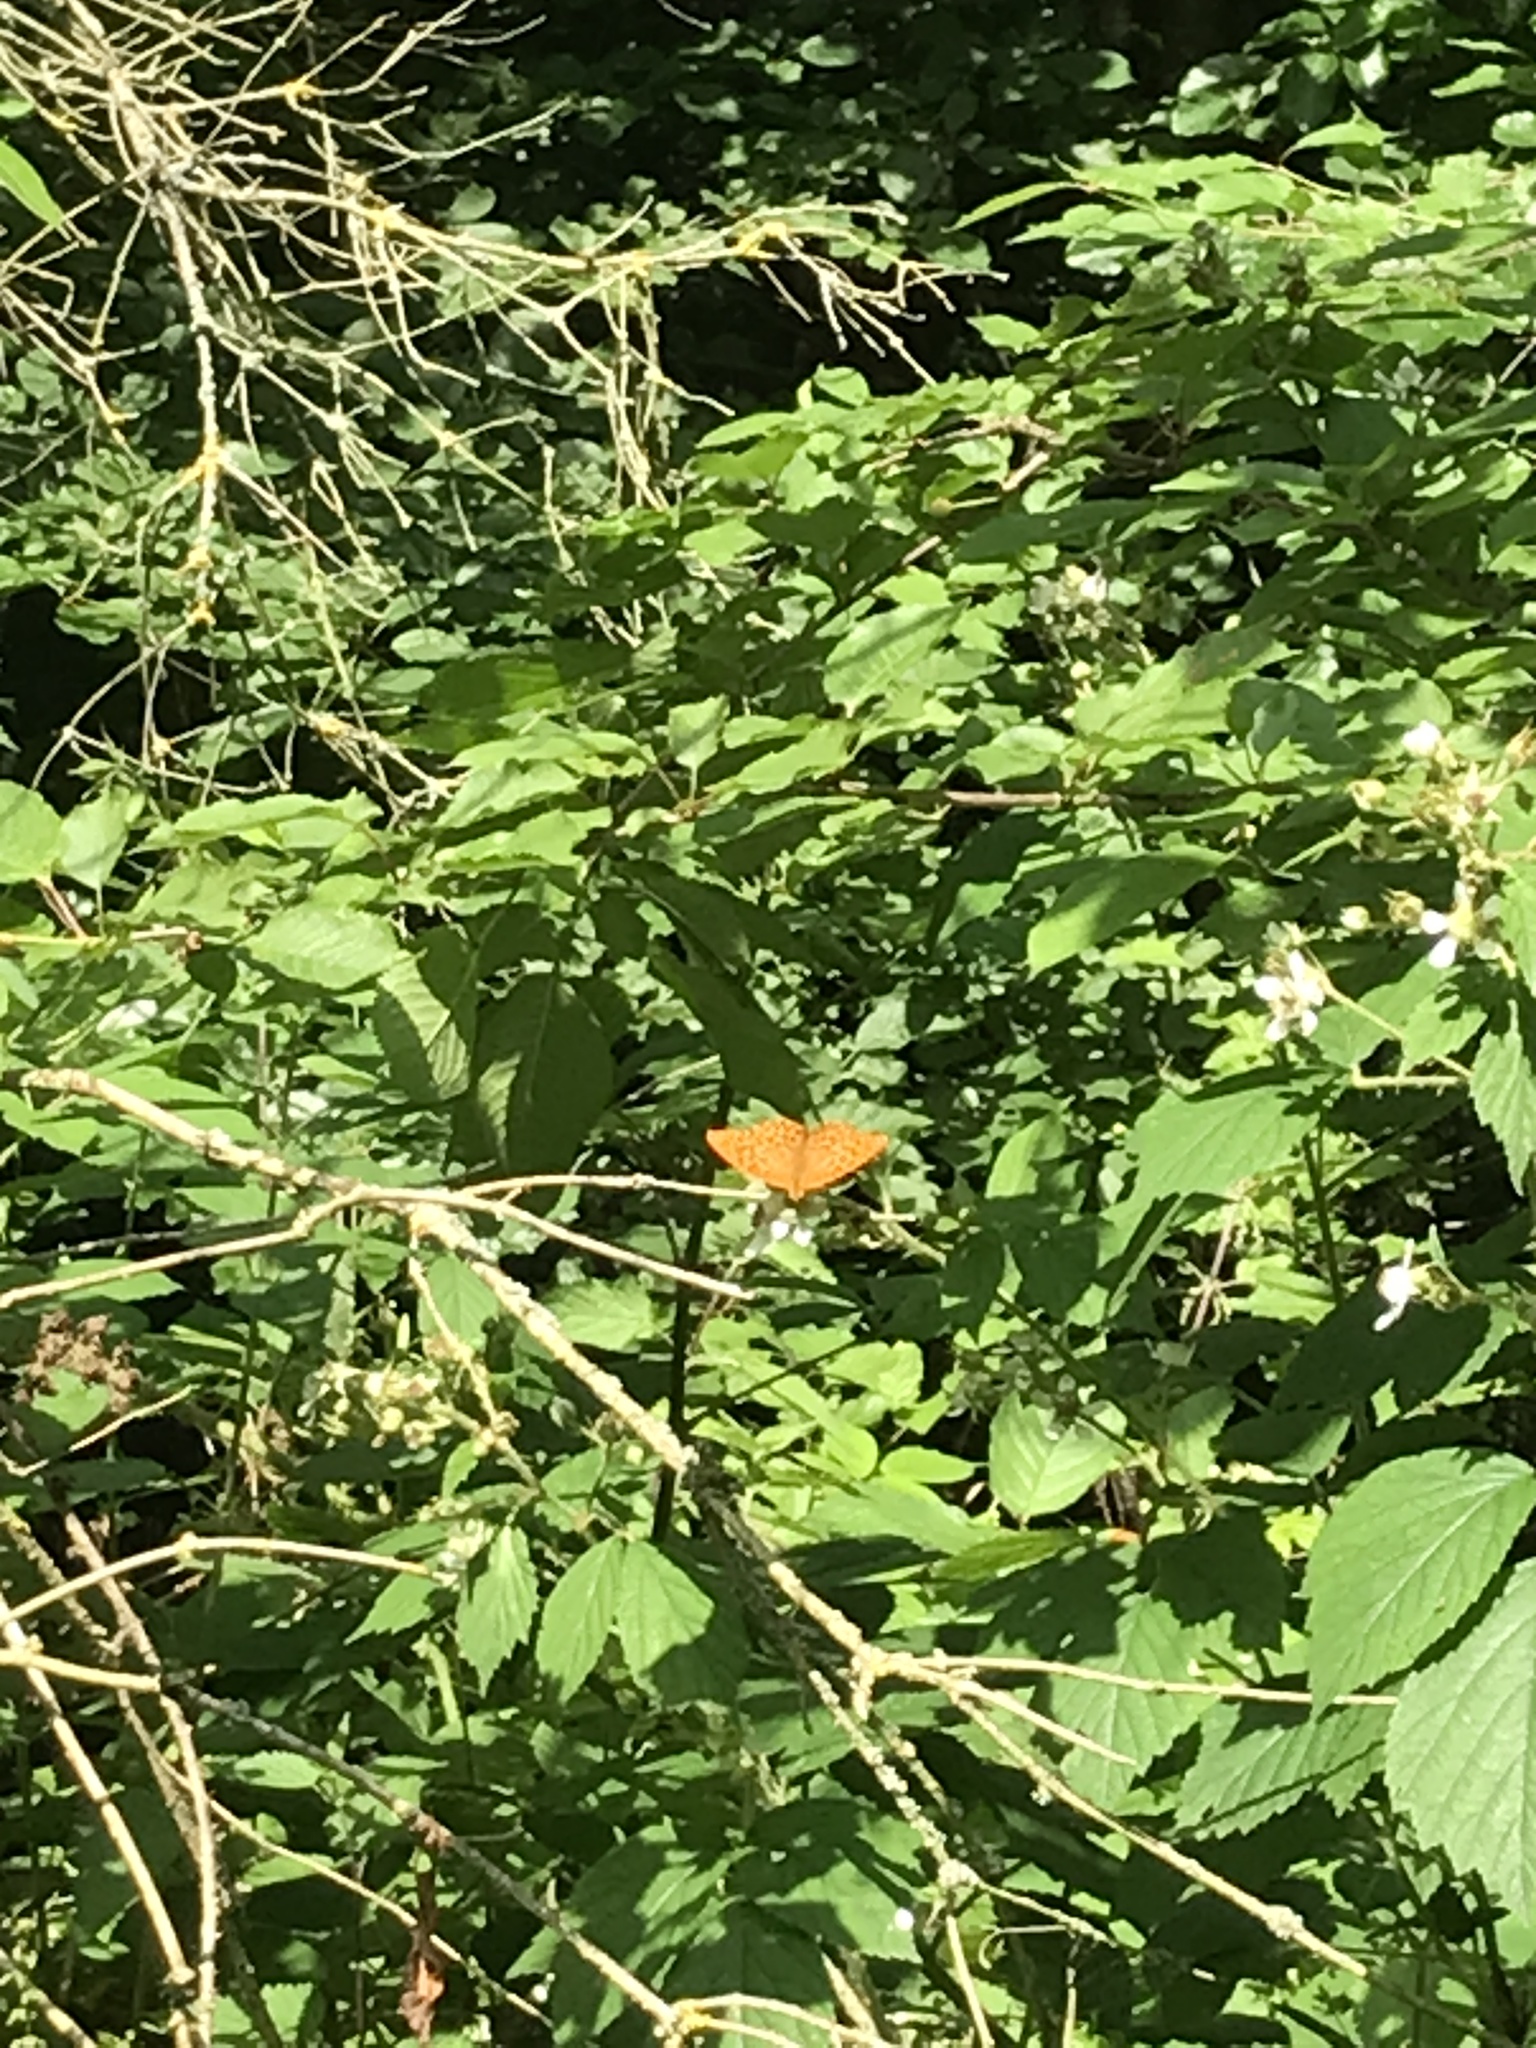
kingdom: Animalia
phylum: Arthropoda
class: Insecta
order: Lepidoptera
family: Nymphalidae
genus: Argynnis
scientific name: Argynnis paphia
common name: Silver-washed fritillary
